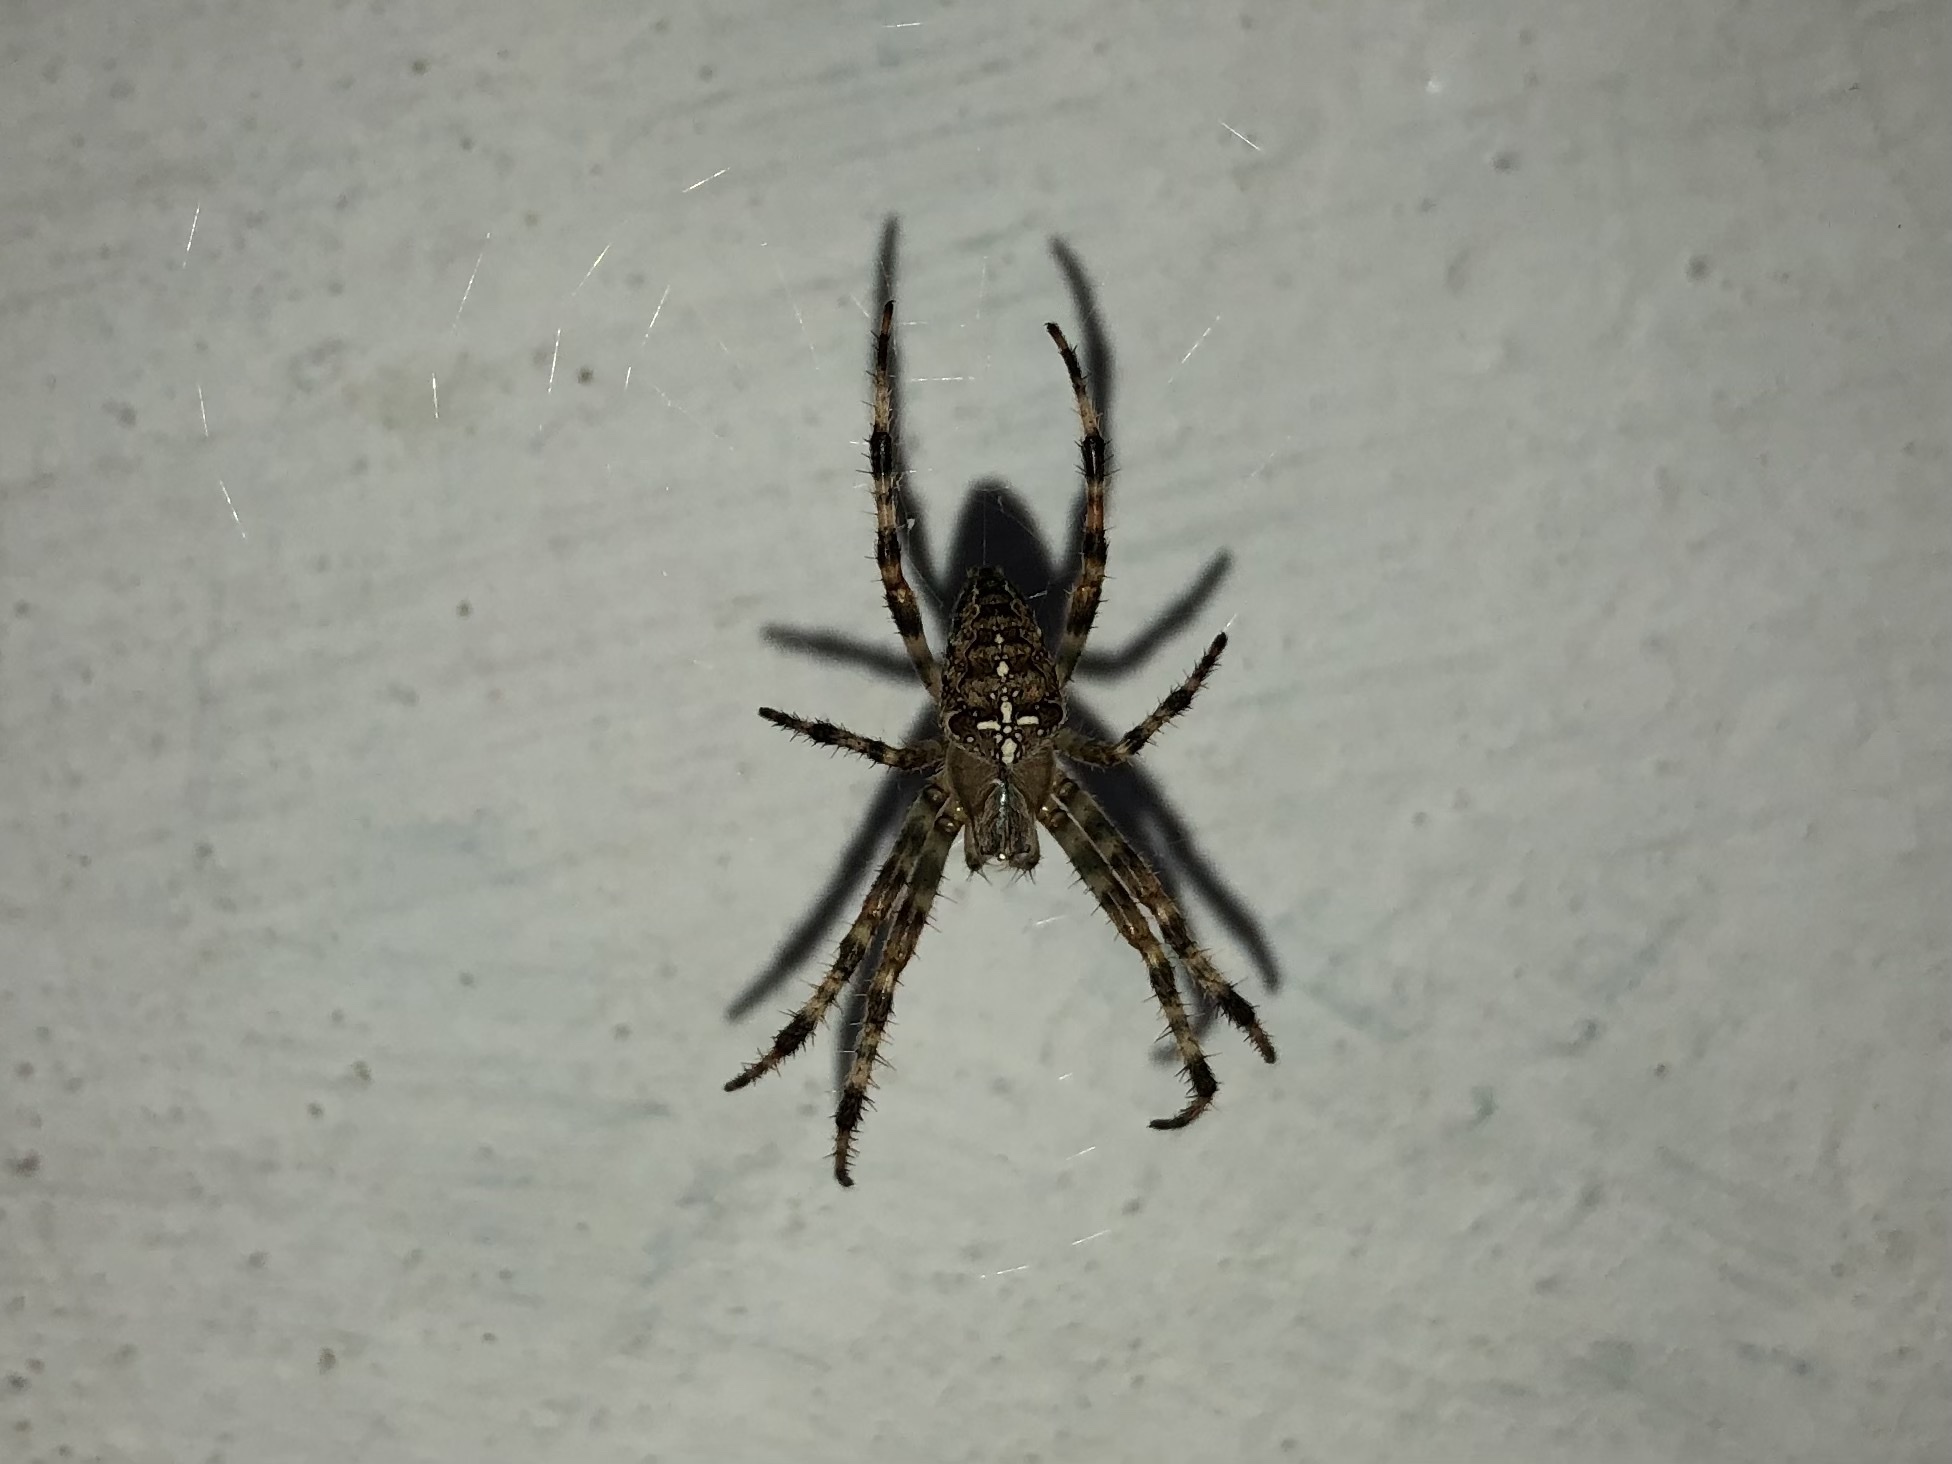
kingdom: Animalia
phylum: Arthropoda
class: Arachnida
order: Araneae
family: Araneidae
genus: Araneus
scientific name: Araneus diadematus
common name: Cross orbweaver
